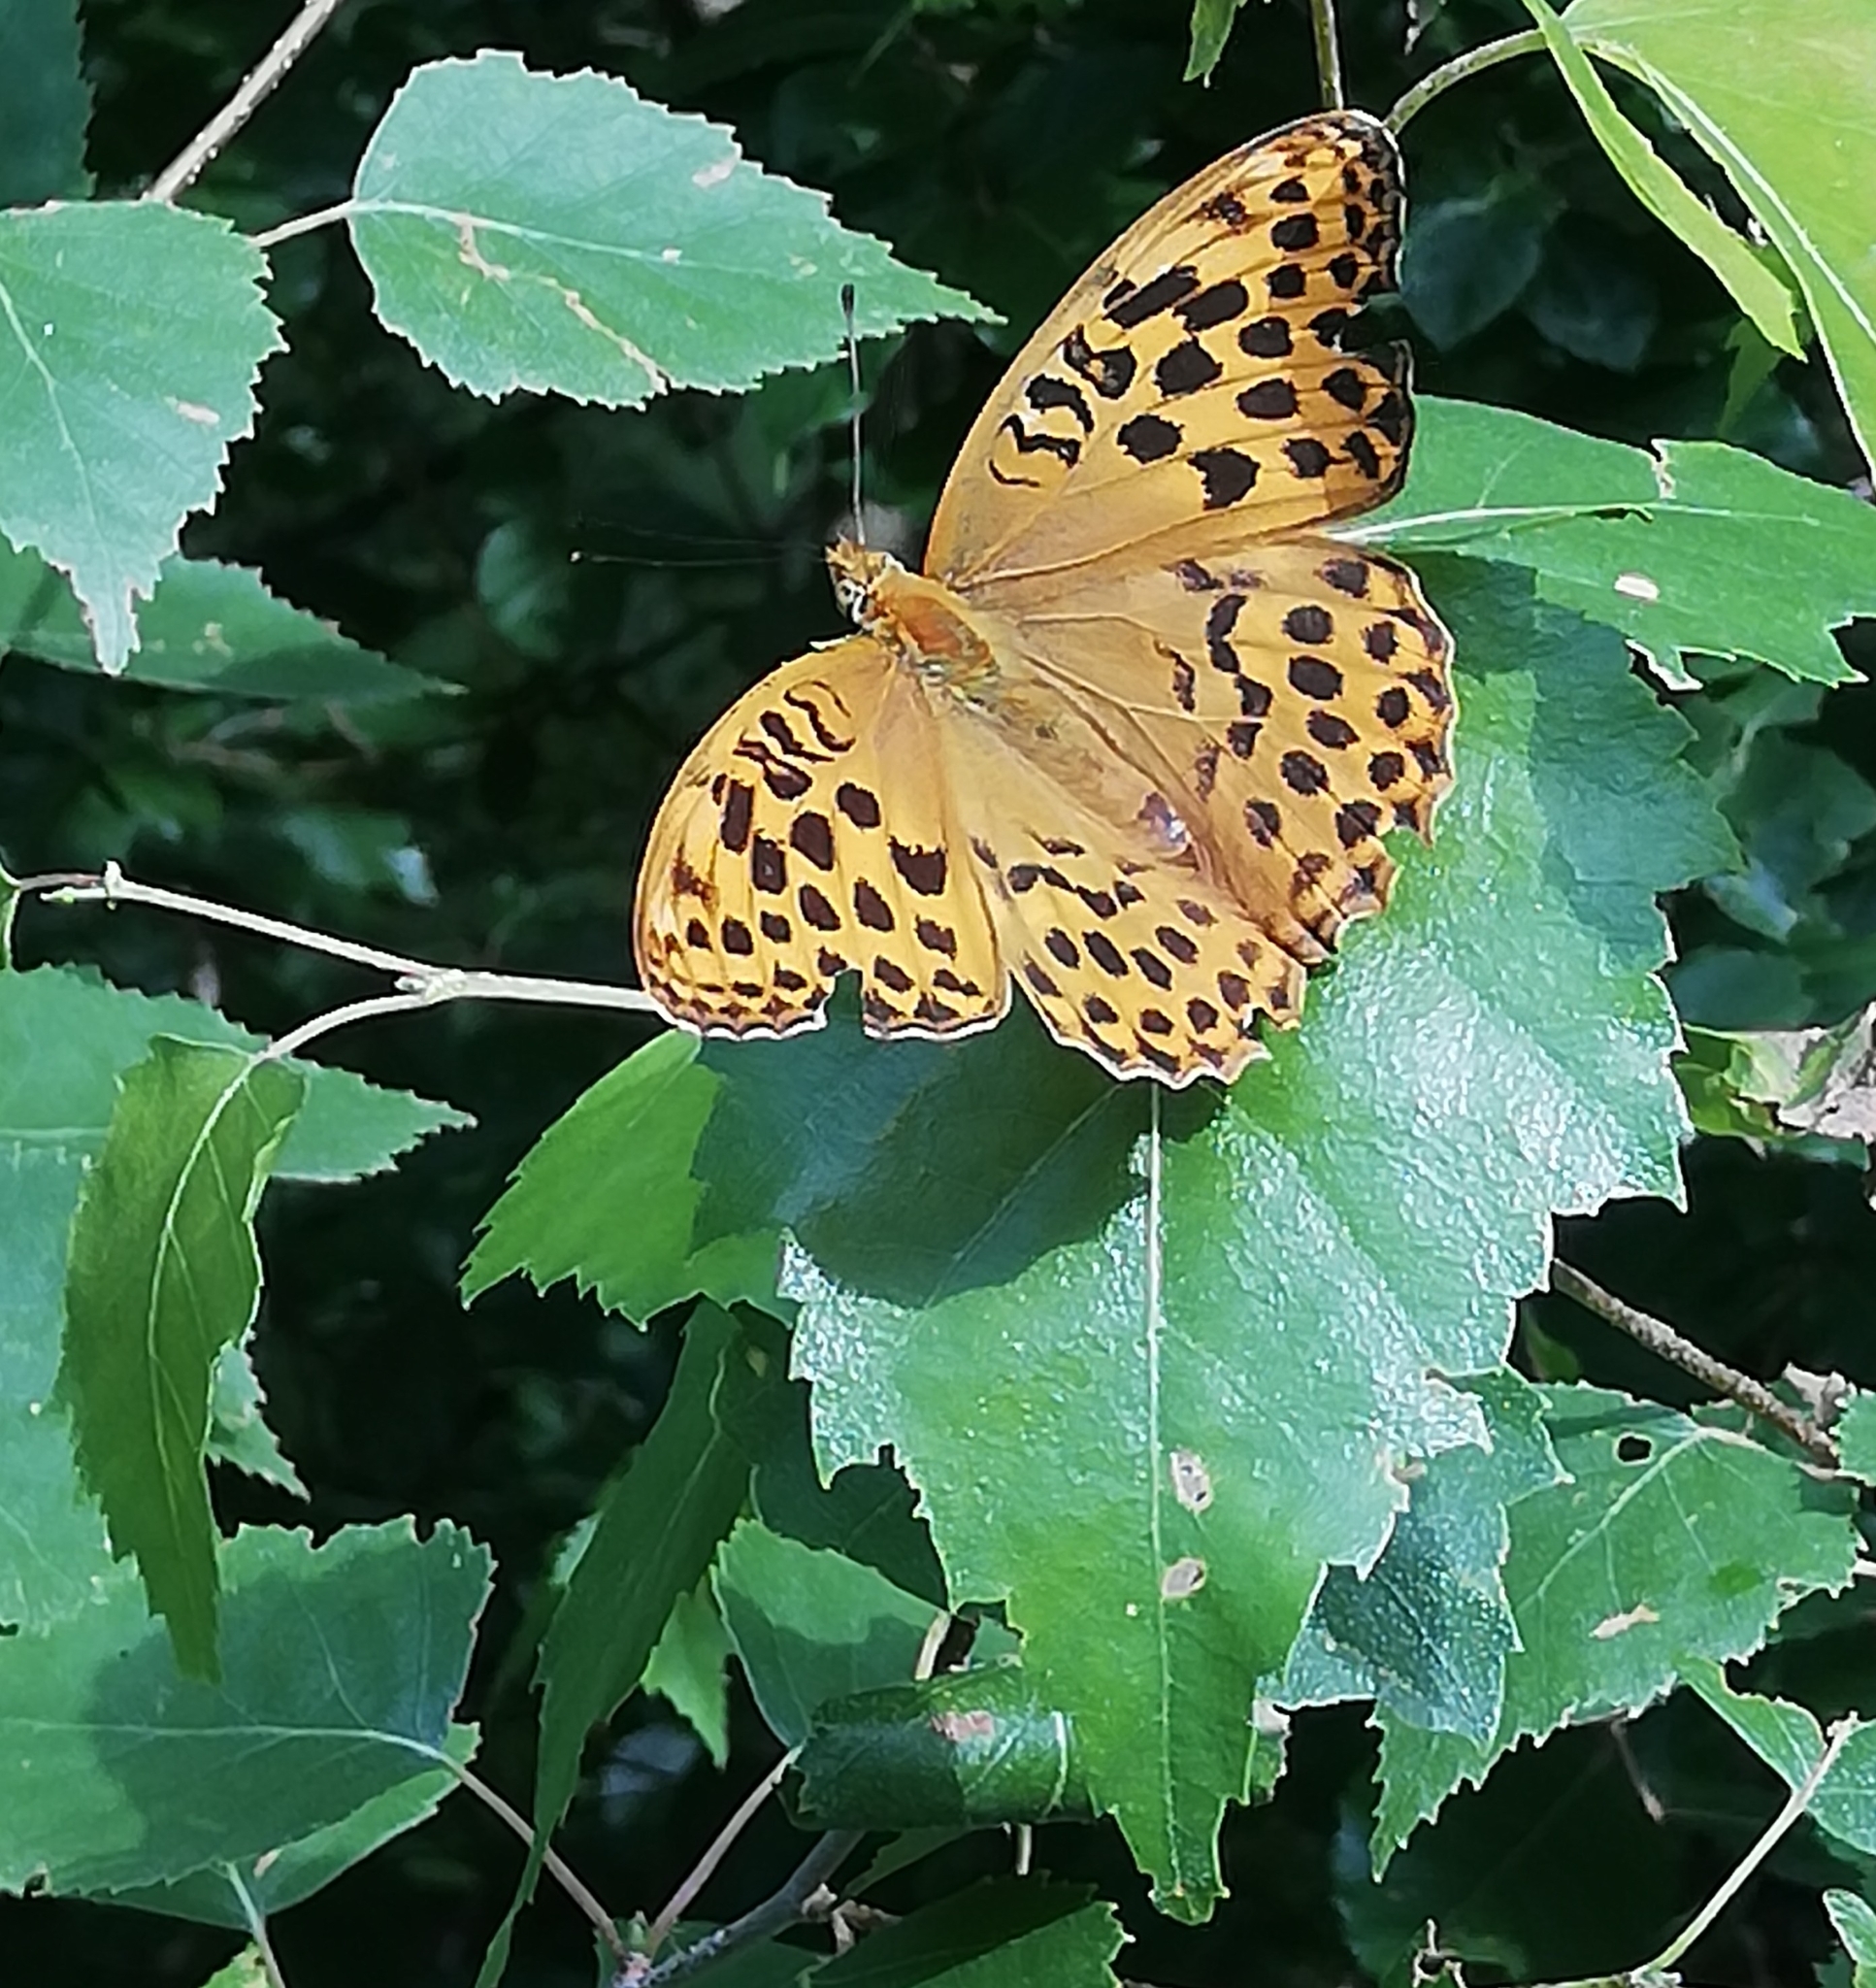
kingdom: Animalia
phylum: Arthropoda
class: Insecta
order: Lepidoptera
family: Nymphalidae
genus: Argynnis
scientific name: Argynnis paphia
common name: Silver-washed fritillary
